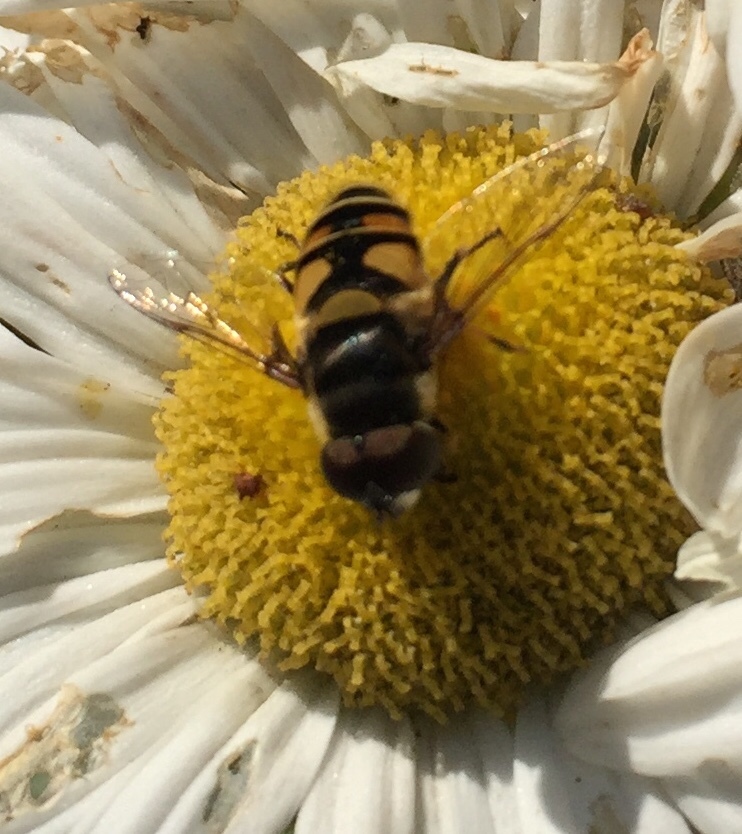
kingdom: Animalia
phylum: Arthropoda
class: Insecta
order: Diptera
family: Syrphidae
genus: Eristalis
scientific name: Eristalis transversa
